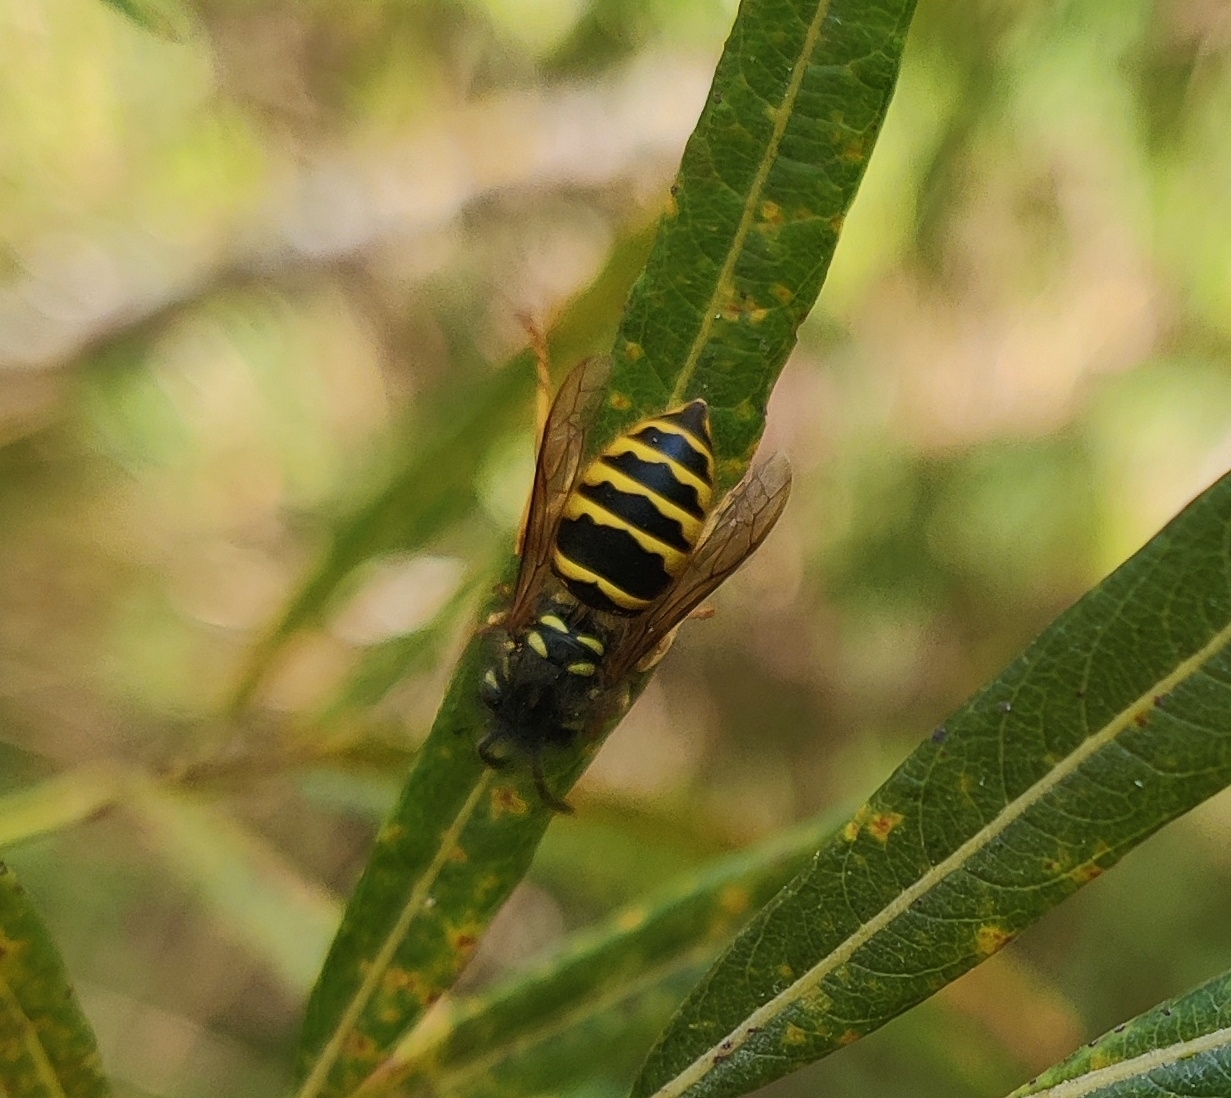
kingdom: Animalia
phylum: Arthropoda
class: Insecta
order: Hymenoptera
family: Vespidae
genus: Vespula
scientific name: Vespula vulgaris
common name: Common wasp
